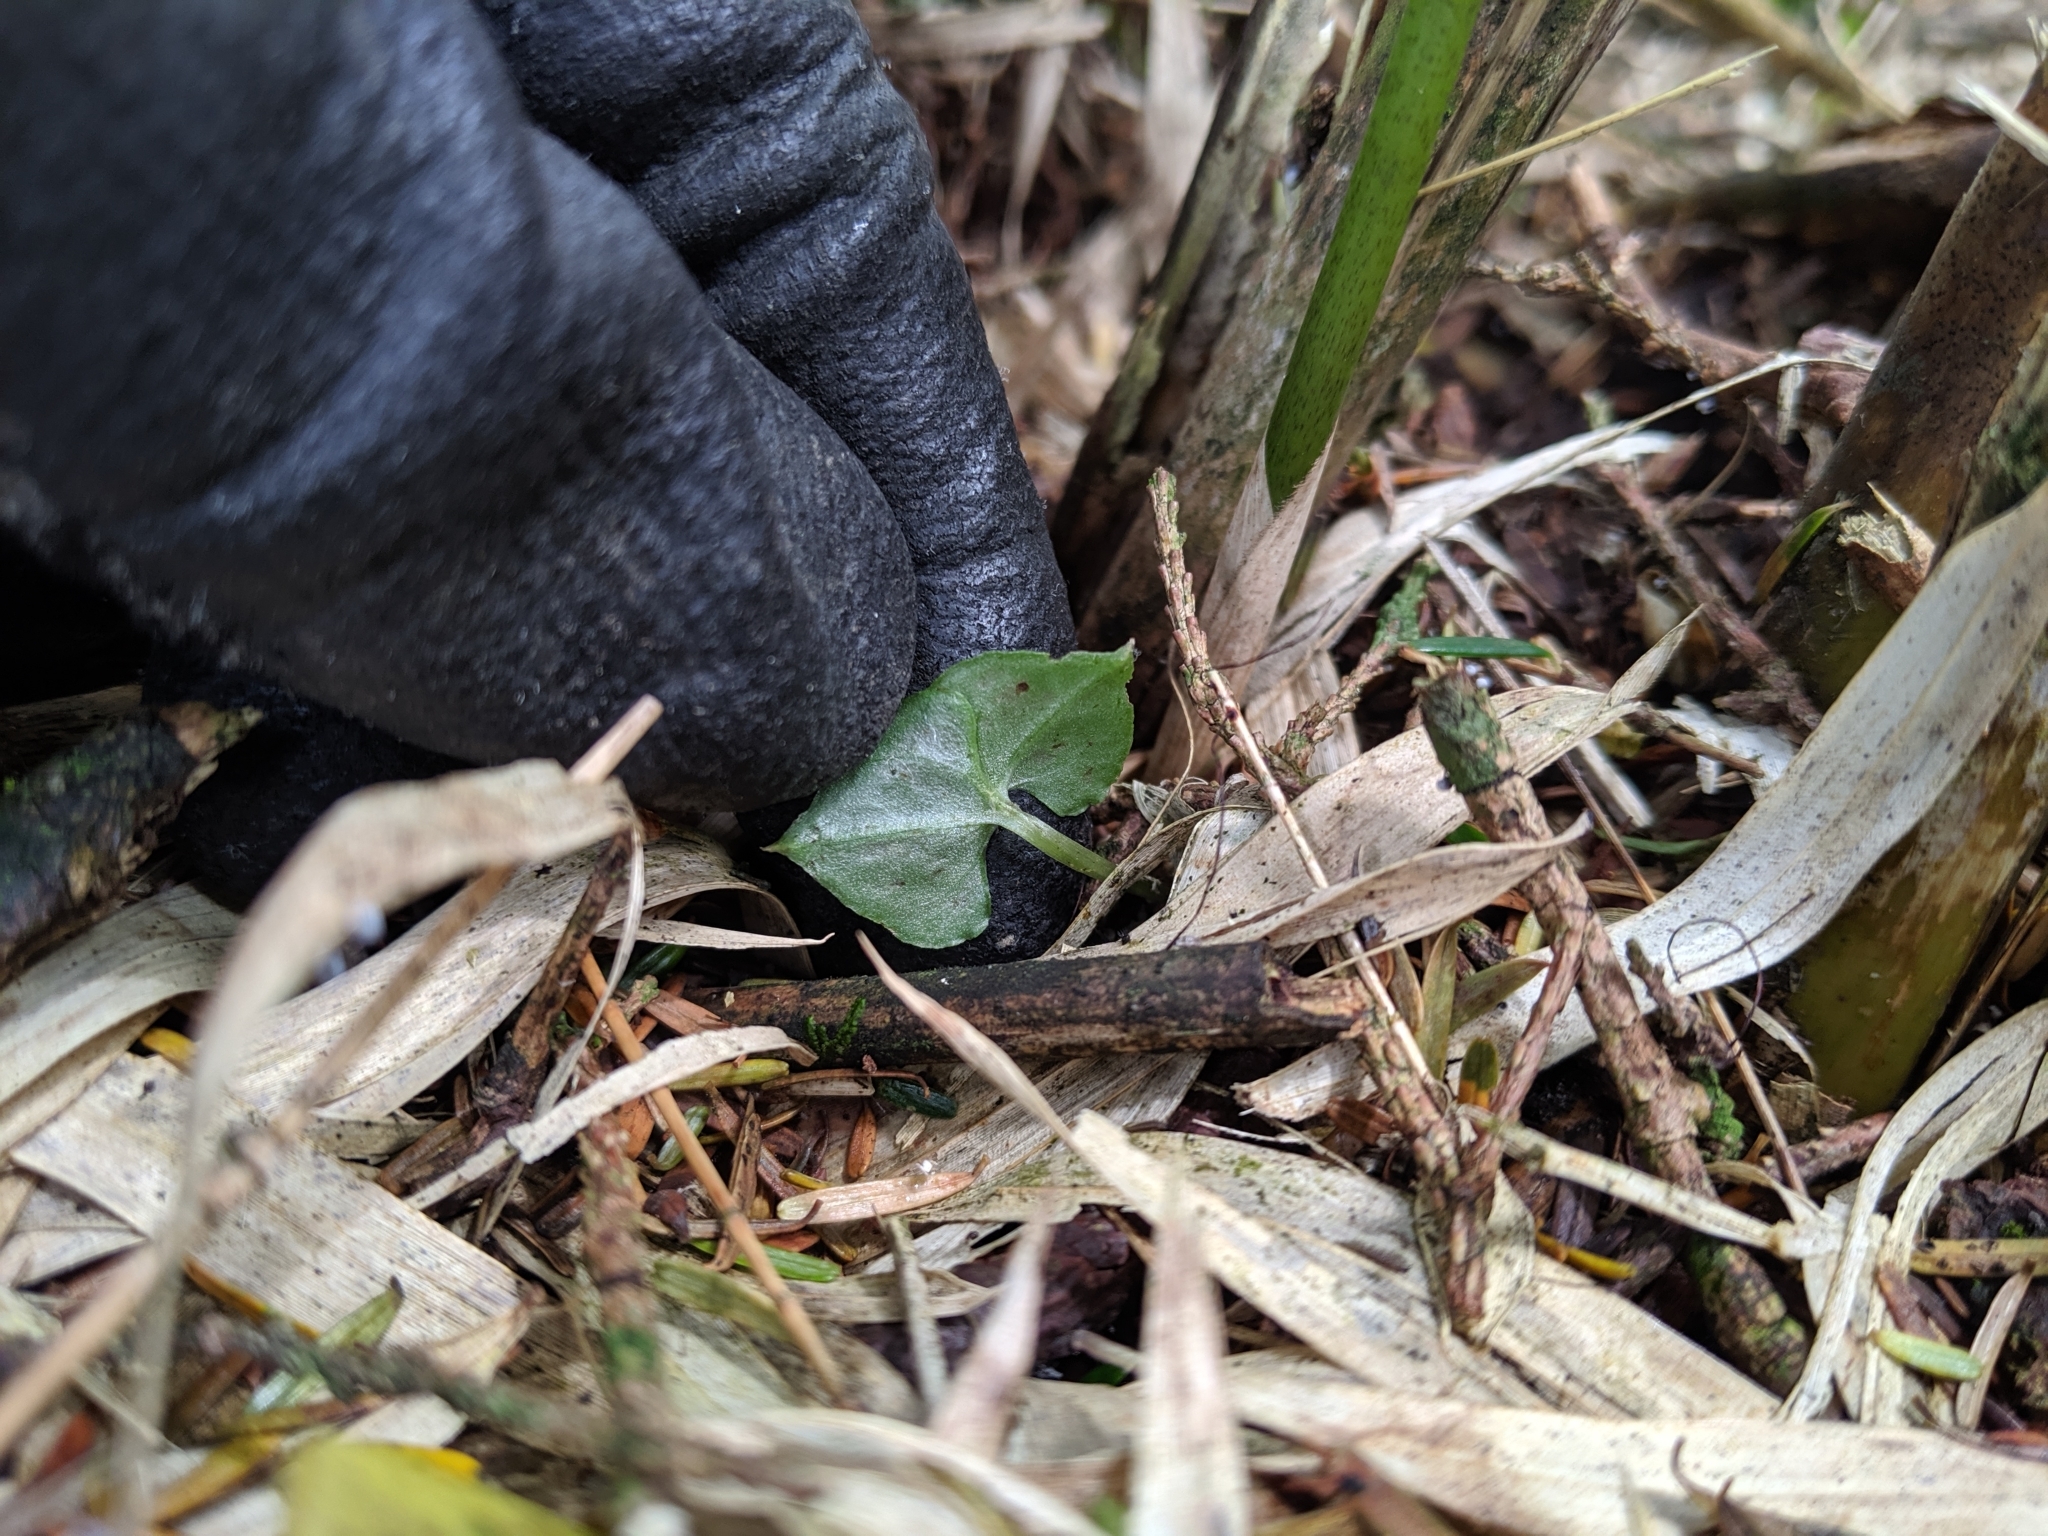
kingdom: Plantae
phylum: Tracheophyta
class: Liliopsida
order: Asparagales
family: Orchidaceae
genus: Neottia
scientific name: Neottia japonica
